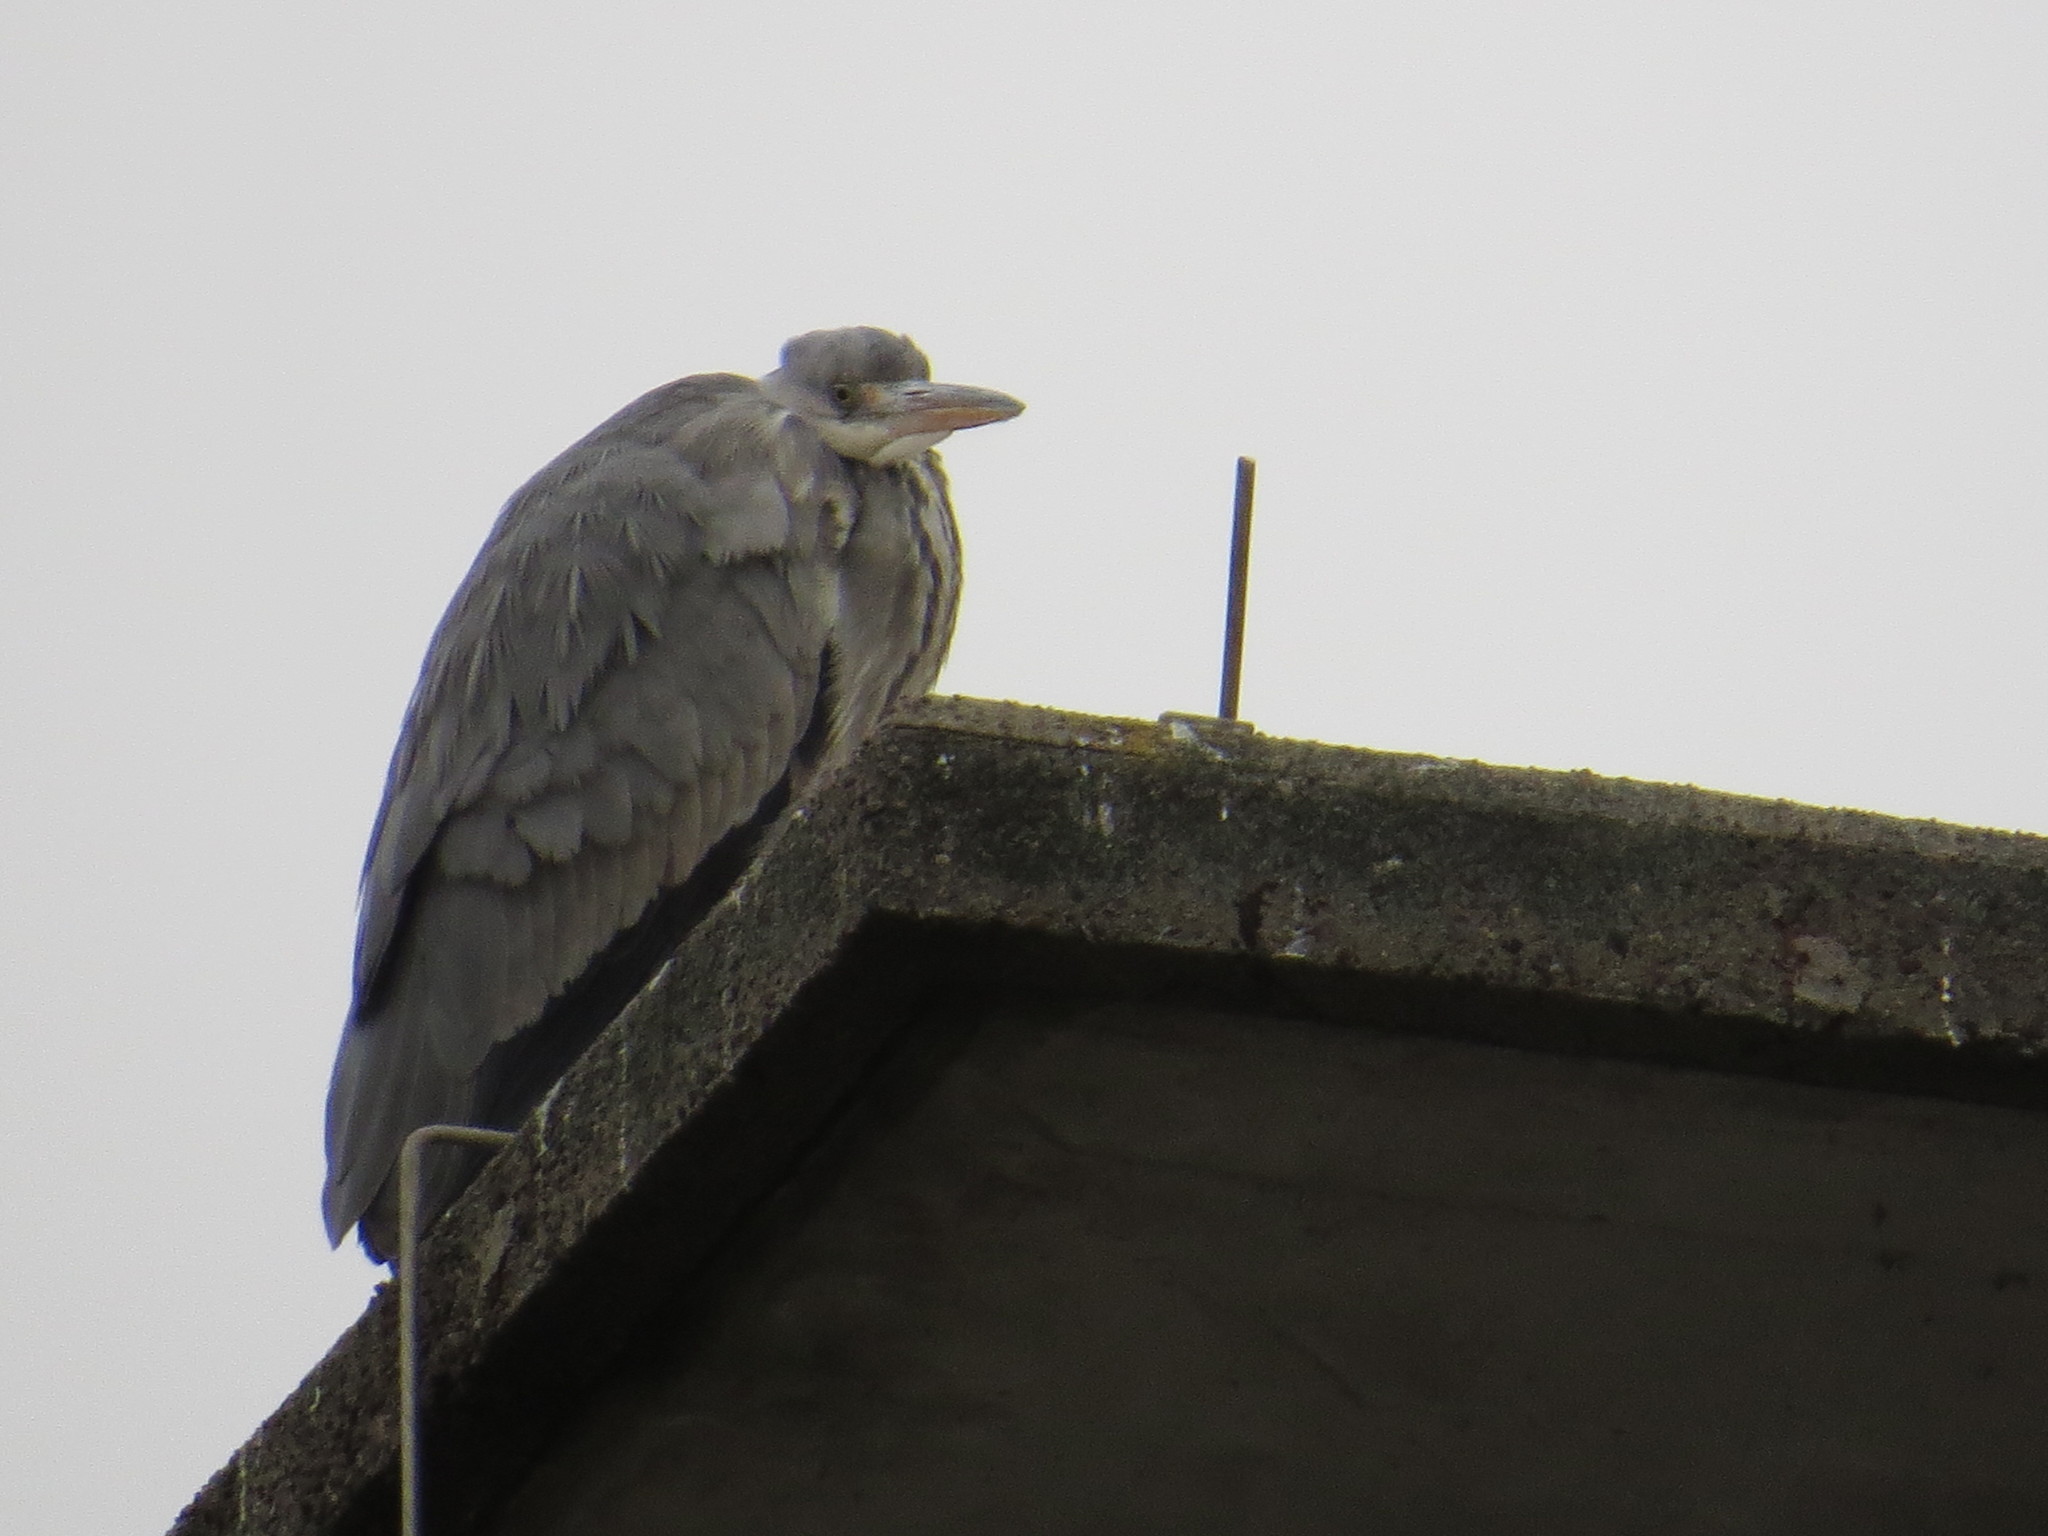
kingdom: Animalia
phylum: Chordata
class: Aves
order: Pelecaniformes
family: Ardeidae
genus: Ardea
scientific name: Ardea cinerea
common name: Grey heron
